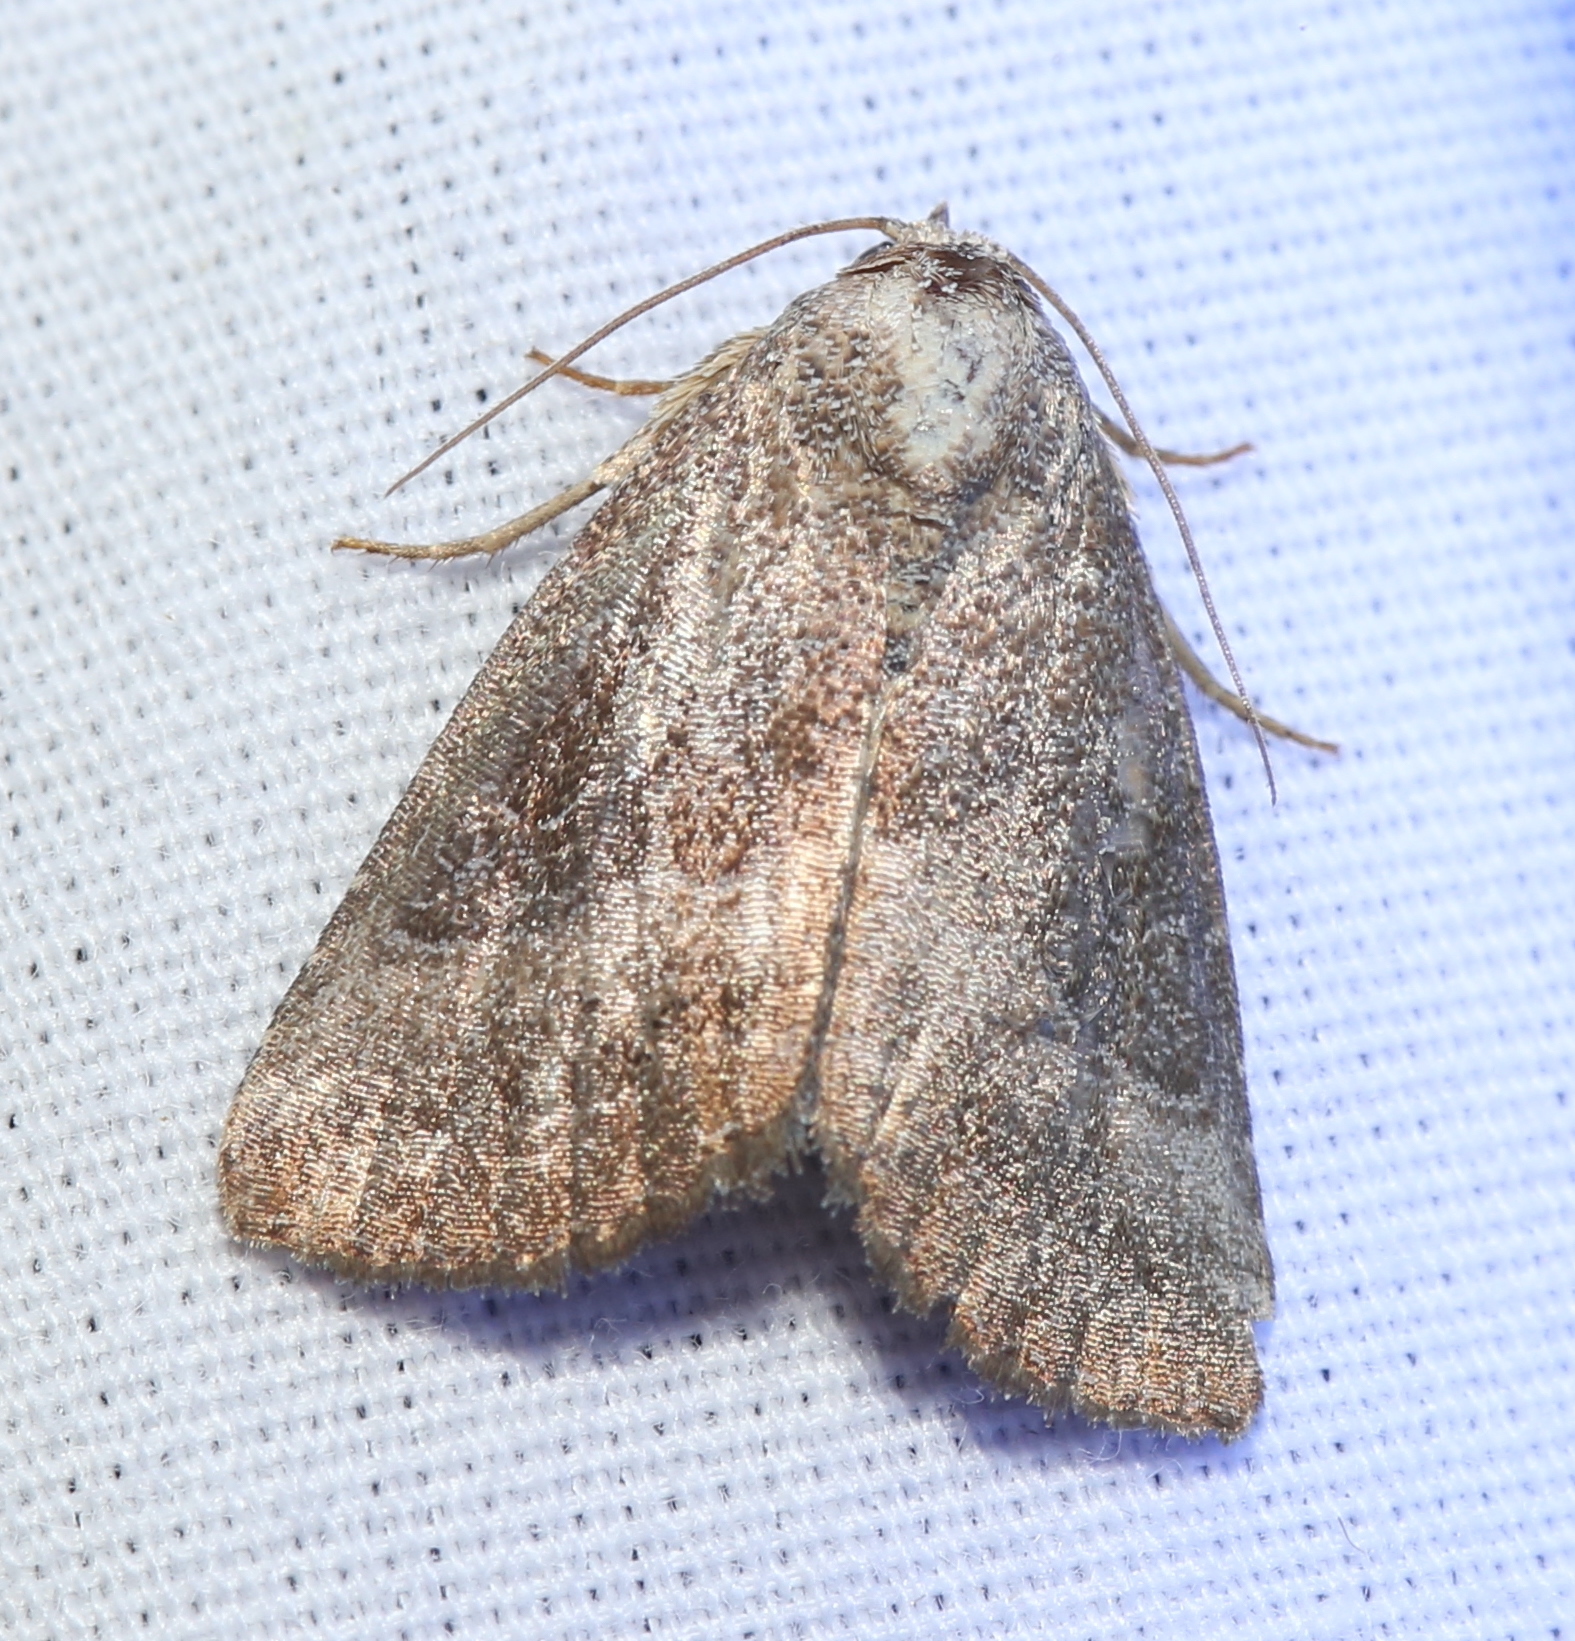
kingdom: Animalia
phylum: Arthropoda
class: Insecta
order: Lepidoptera
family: Noctuidae
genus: Ogdoconta
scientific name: Ogdoconta cinereola
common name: Common pinkband
